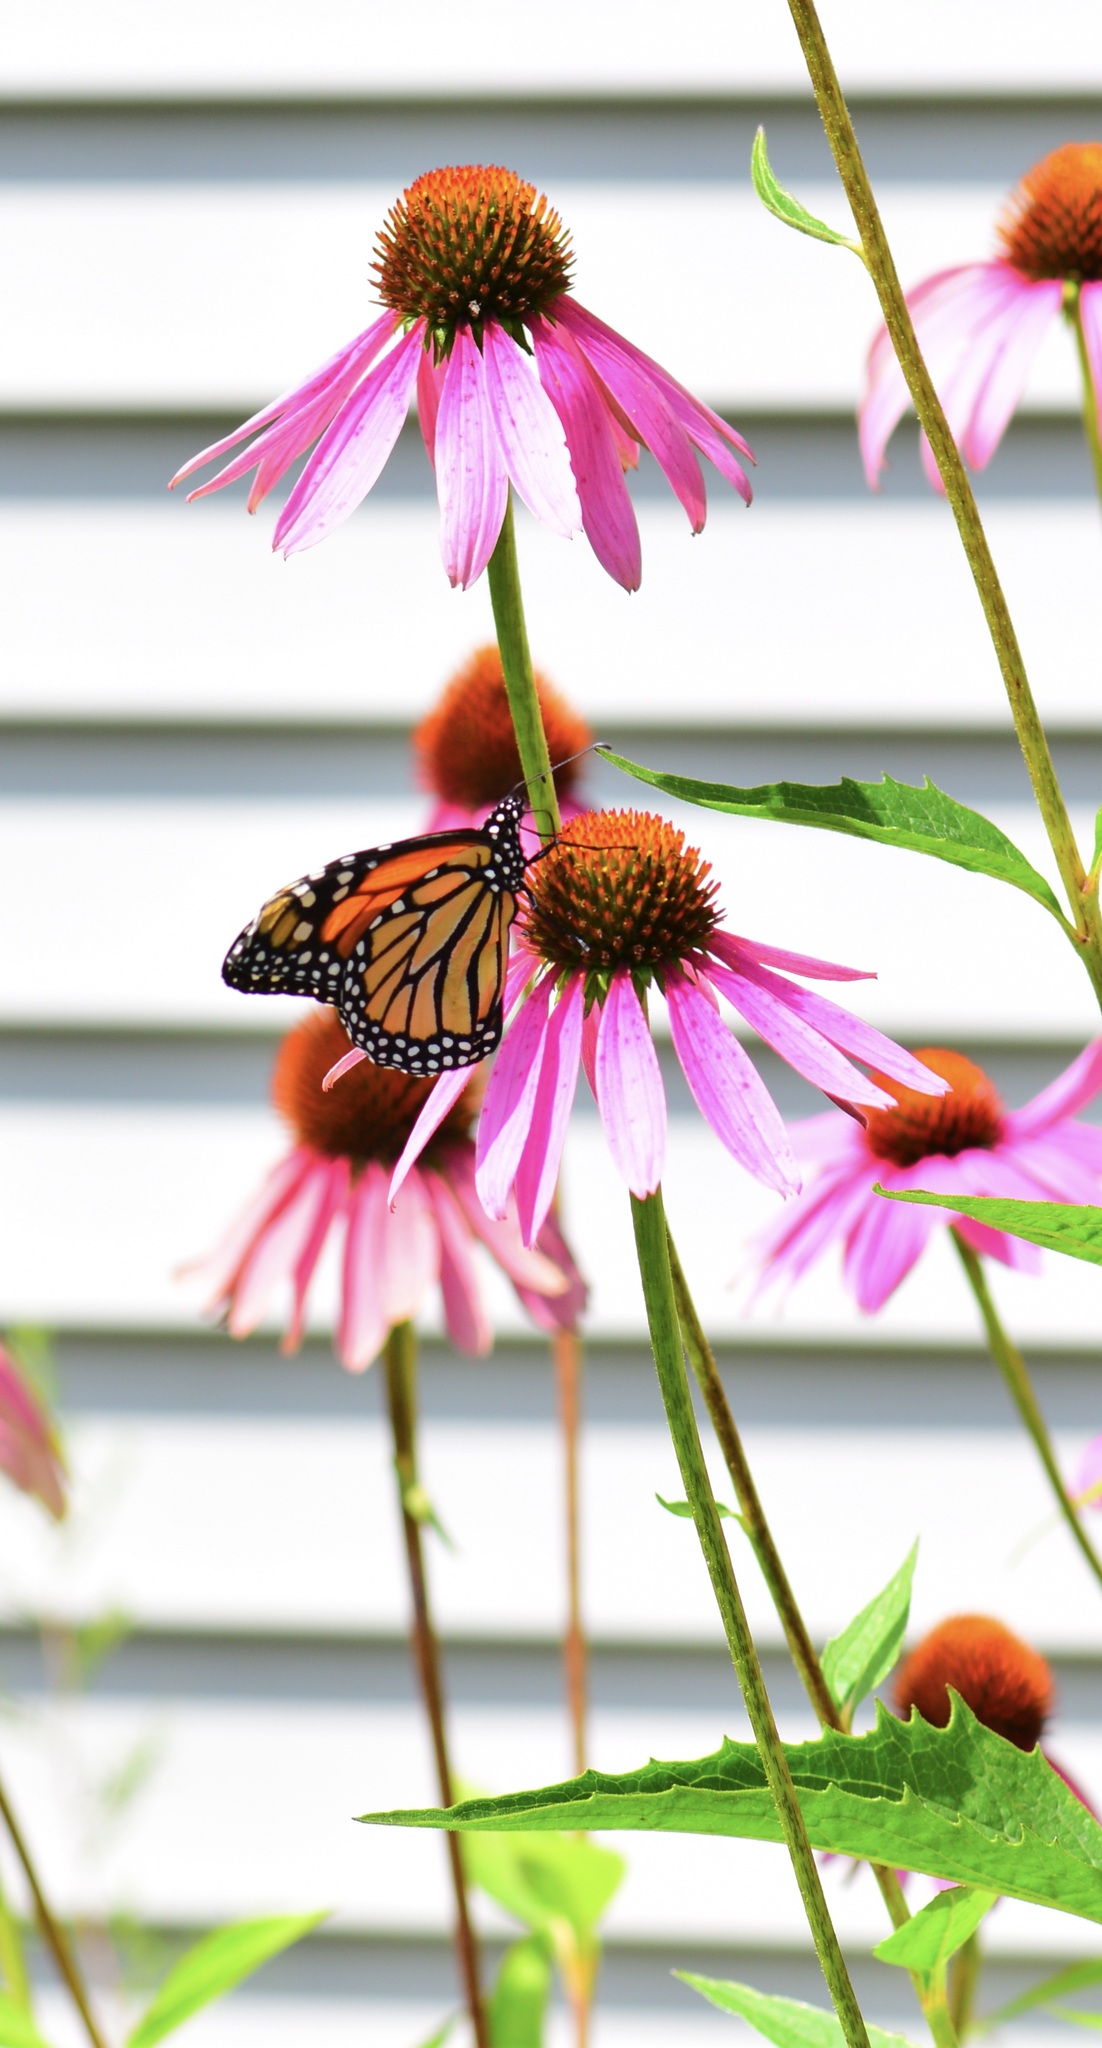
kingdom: Animalia
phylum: Arthropoda
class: Insecta
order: Lepidoptera
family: Nymphalidae
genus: Danaus
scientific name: Danaus plexippus
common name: Monarch
